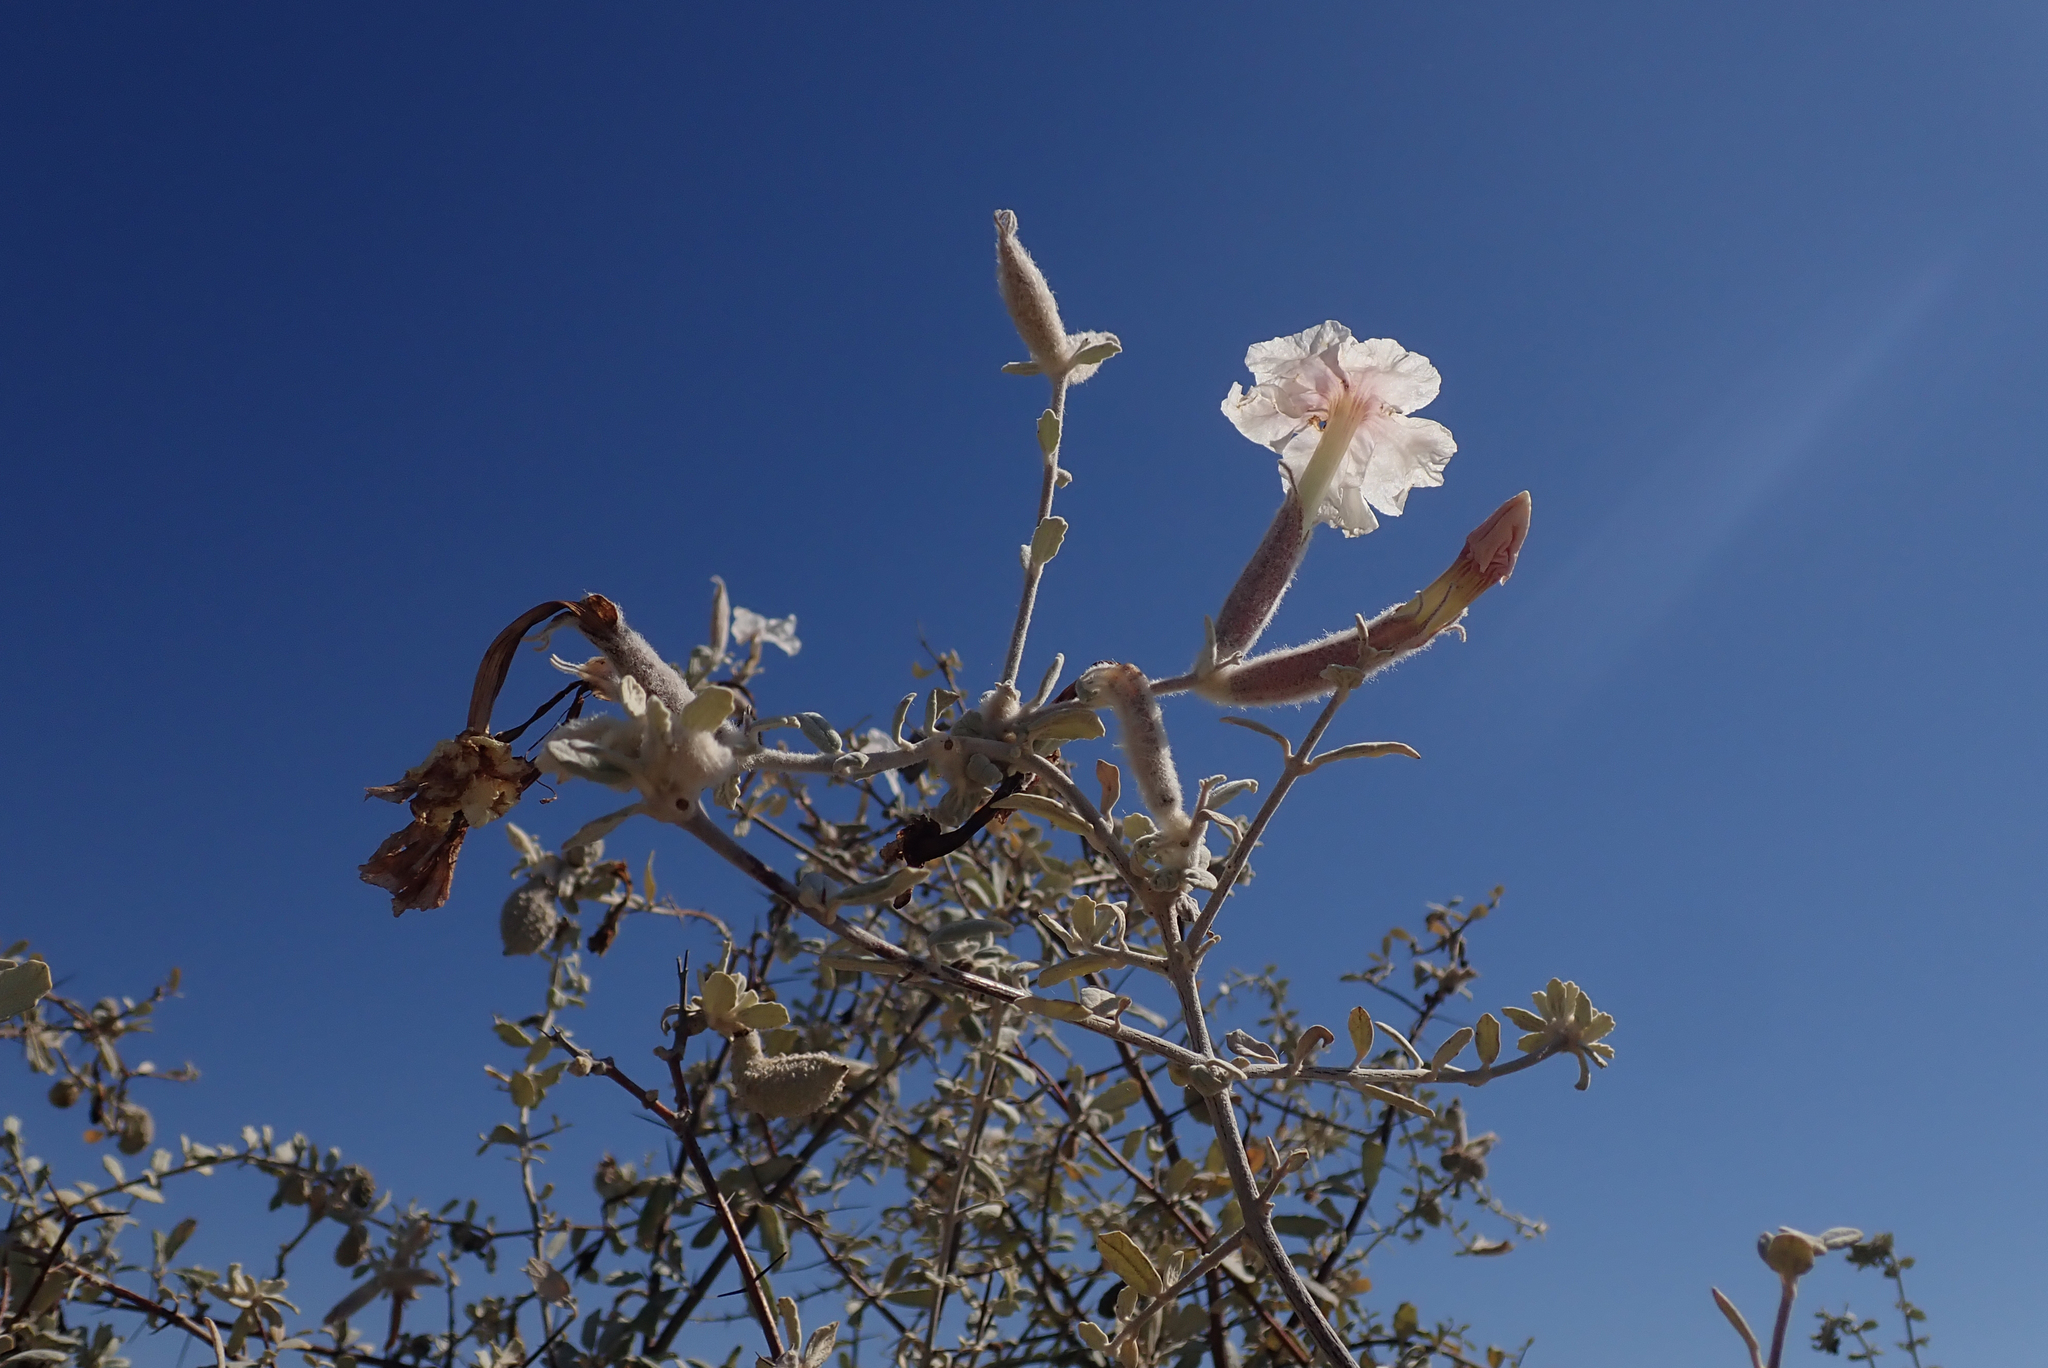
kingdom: Plantae
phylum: Tracheophyta
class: Magnoliopsida
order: Lamiales
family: Bignoniaceae
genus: Catophractes
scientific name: Catophractes alexandri
